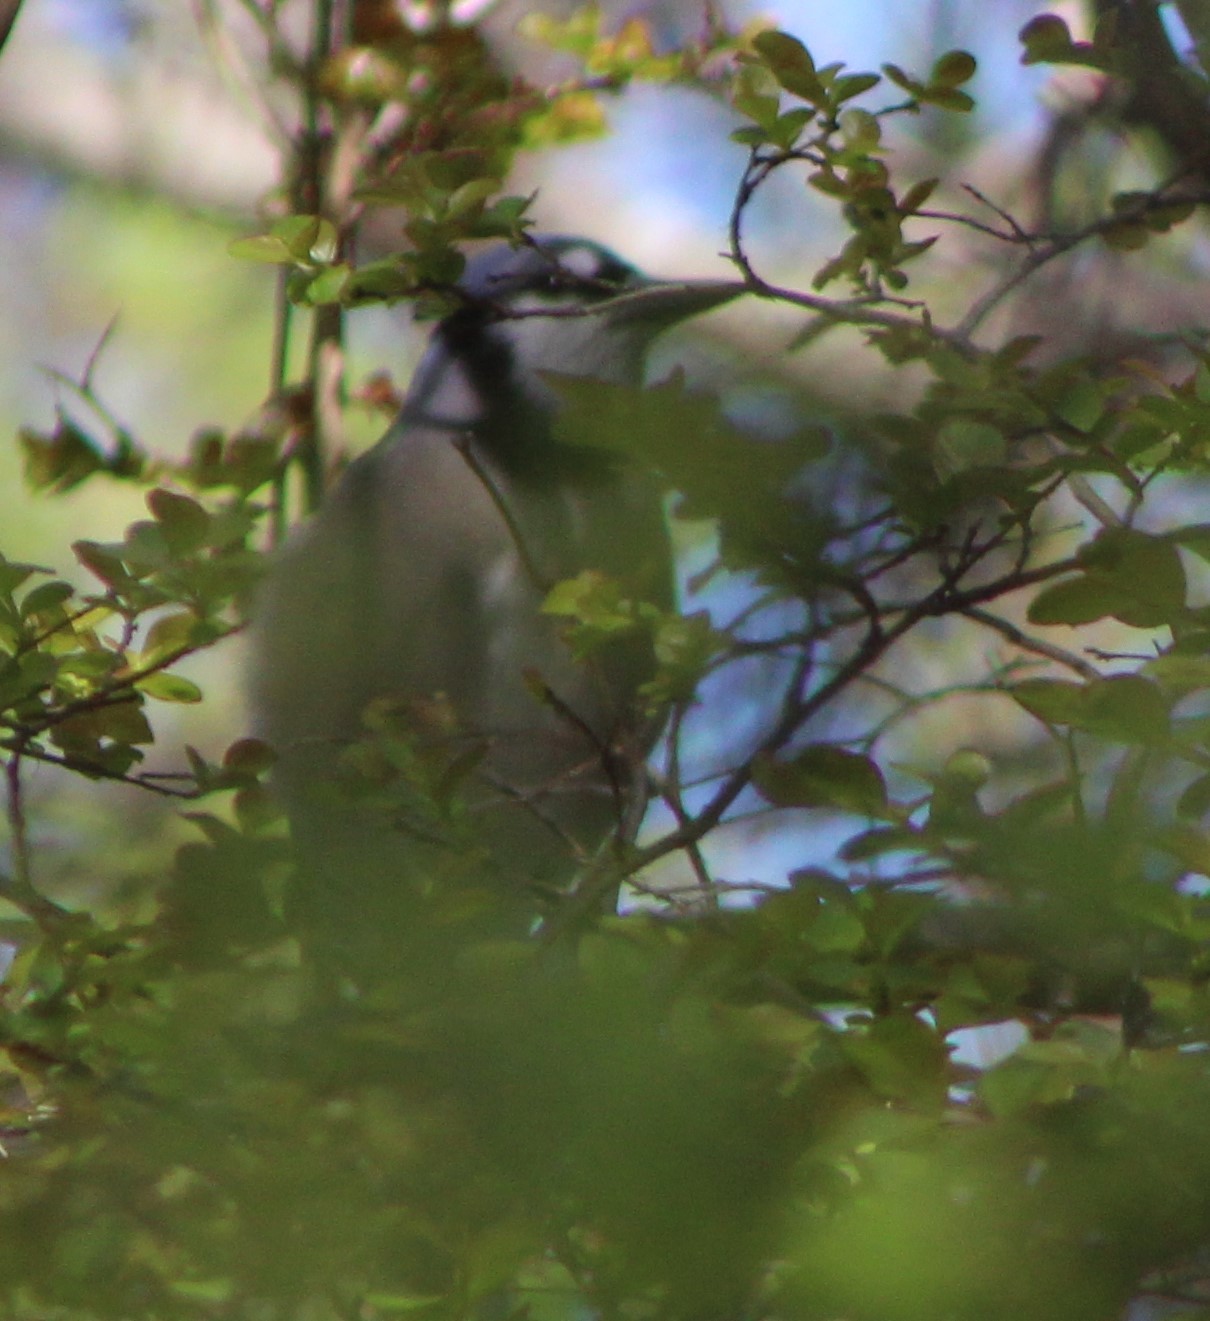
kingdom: Animalia
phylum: Chordata
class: Aves
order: Passeriformes
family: Corvidae
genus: Cyanocitta
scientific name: Cyanocitta cristata
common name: Blue jay
